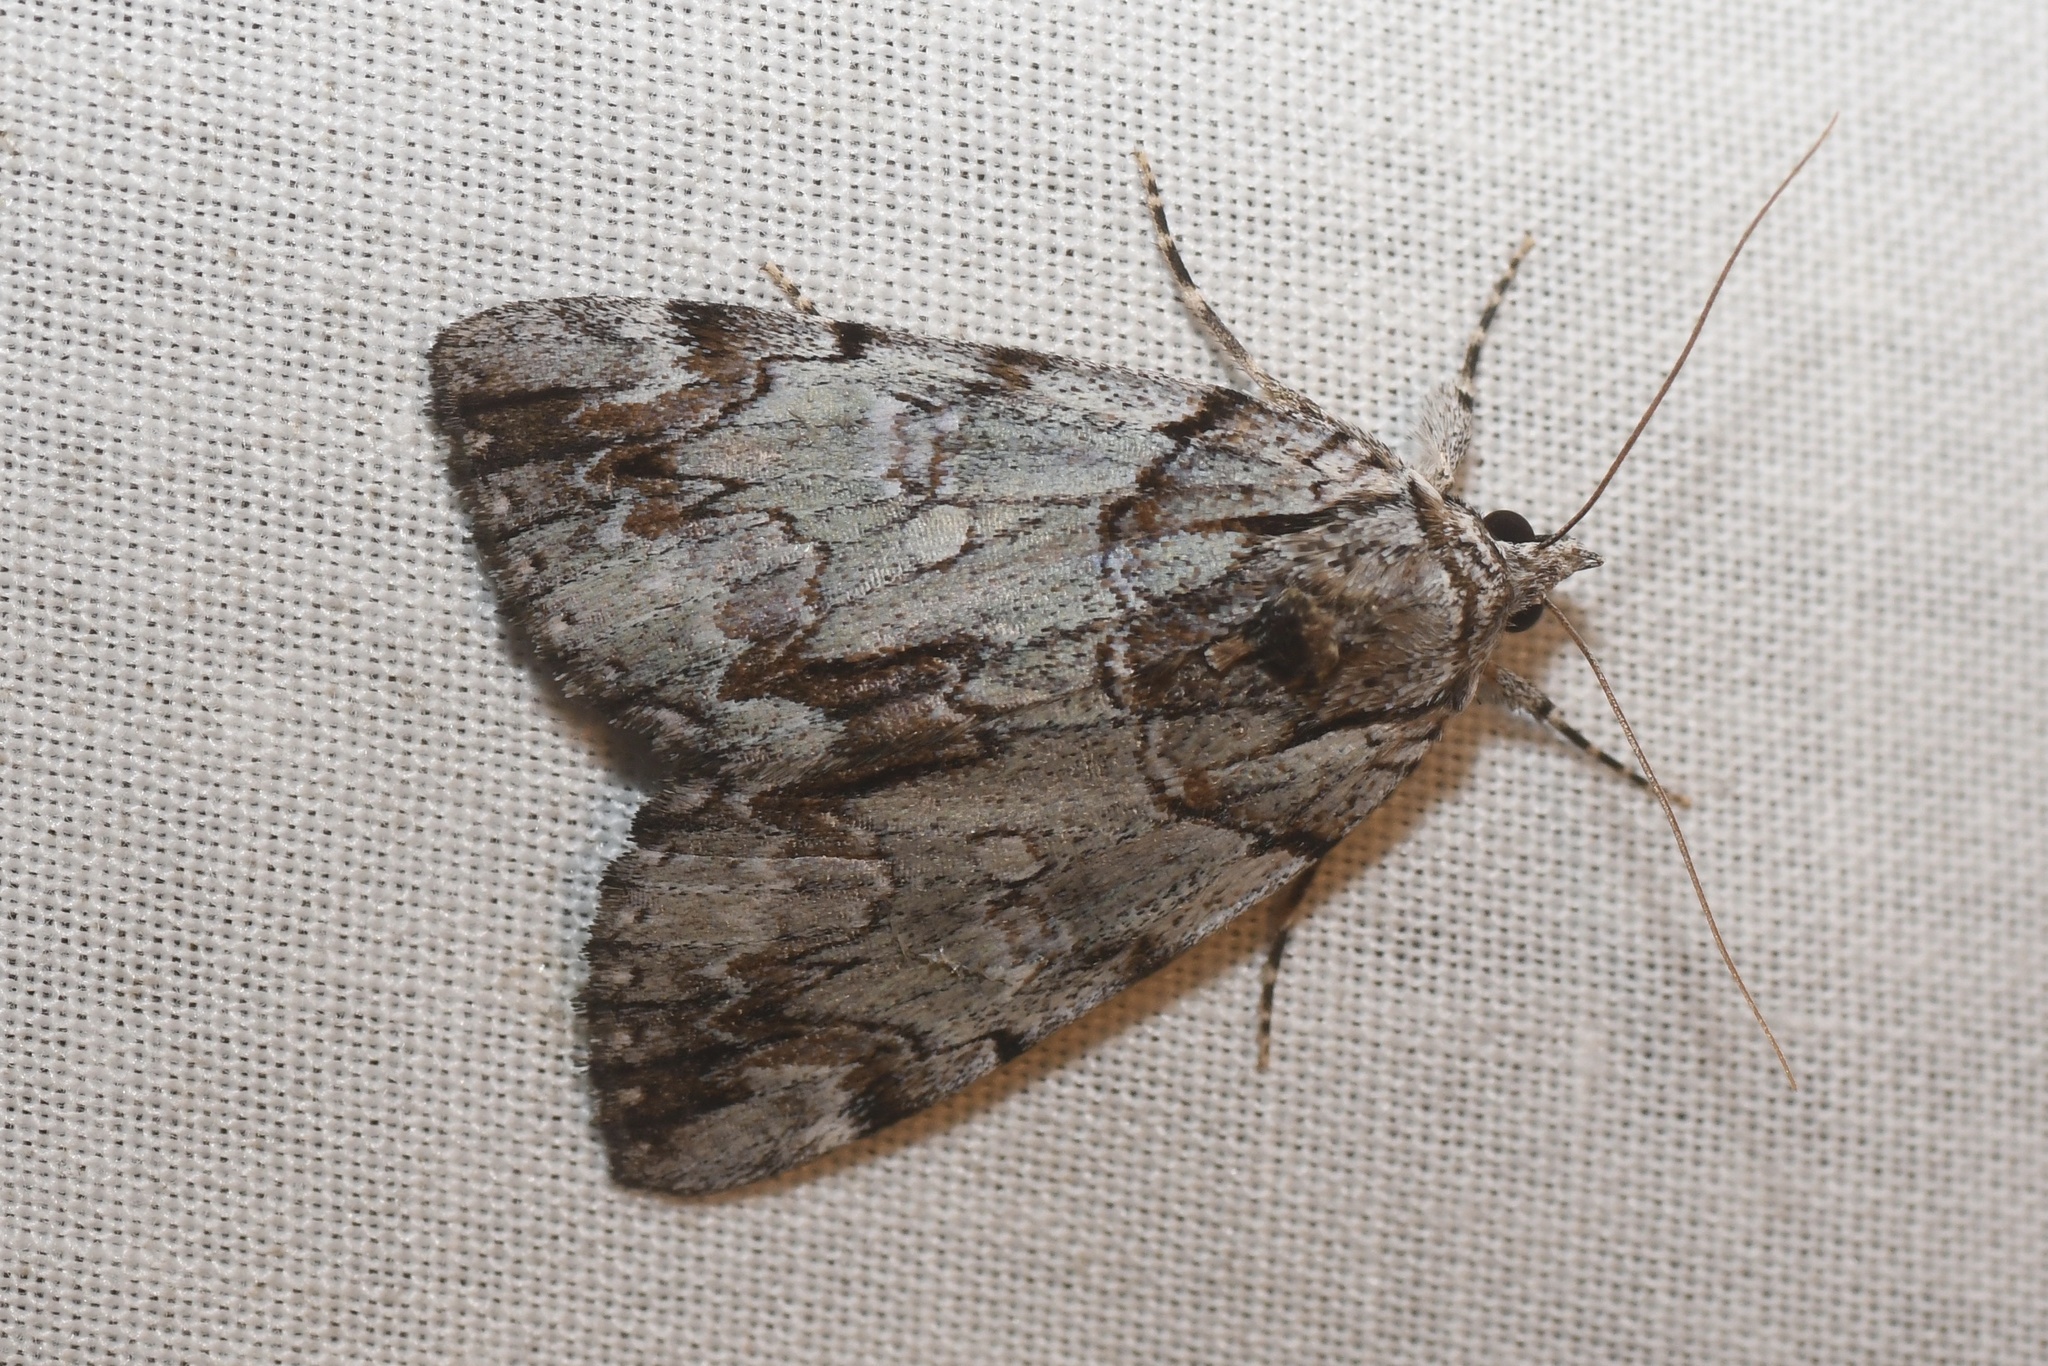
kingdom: Animalia
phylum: Arthropoda
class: Insecta
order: Lepidoptera
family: Erebidae
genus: Catocala
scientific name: Catocala praeclara
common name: Praeclara underwing
